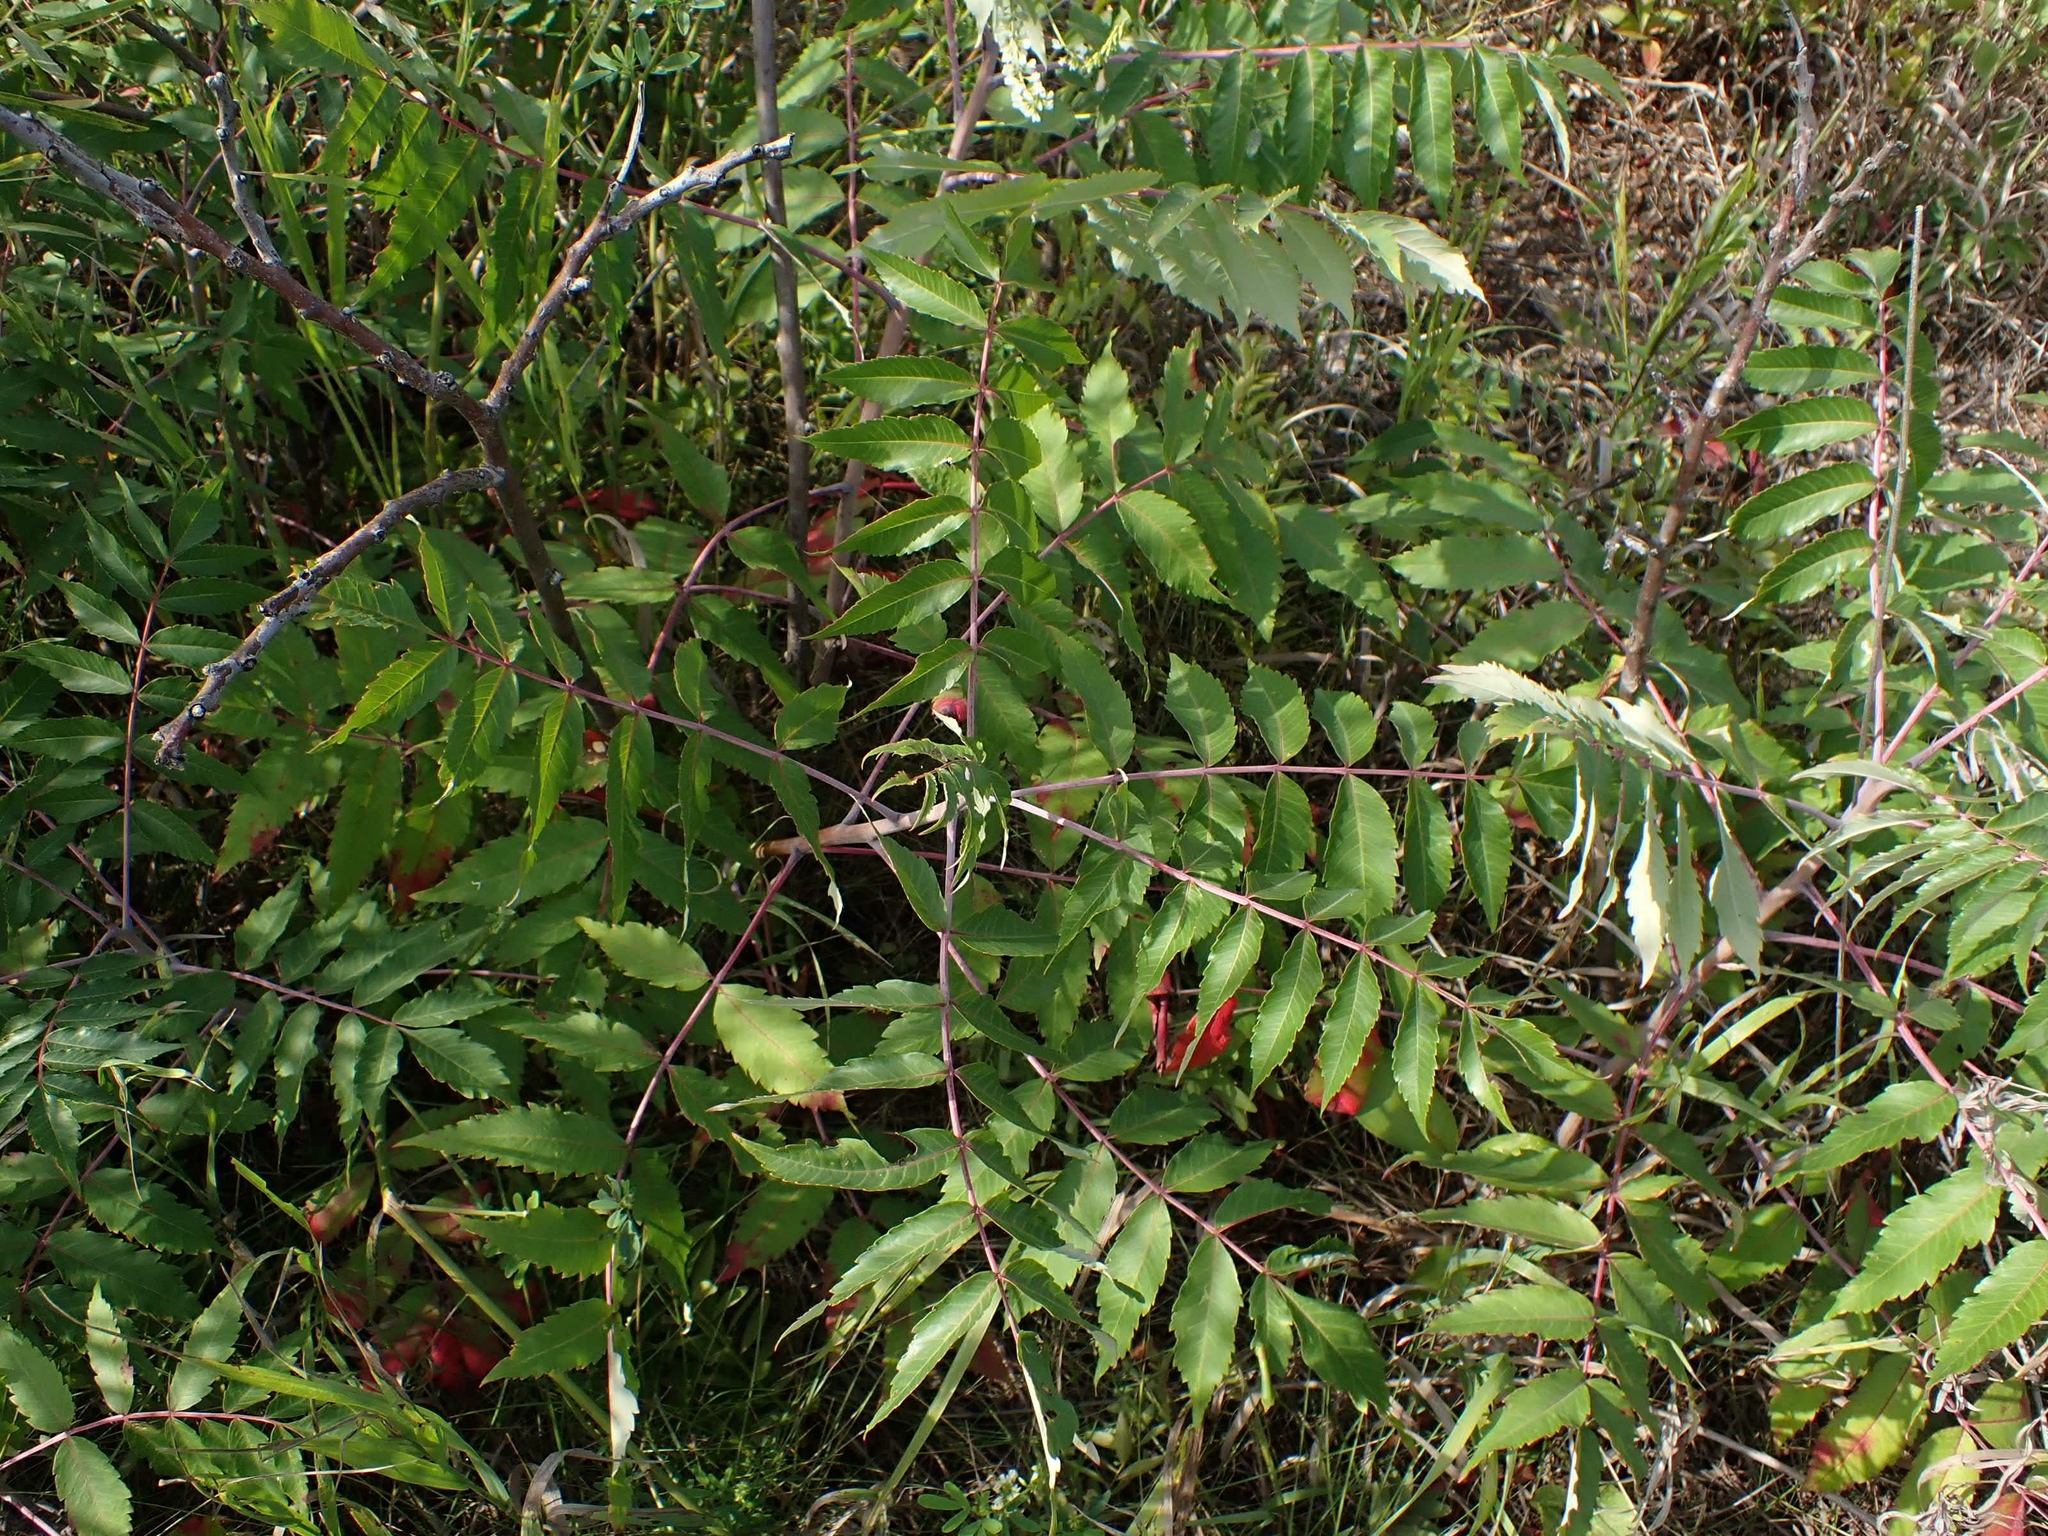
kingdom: Plantae
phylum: Tracheophyta
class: Magnoliopsida
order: Sapindales
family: Anacardiaceae
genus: Rhus
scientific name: Rhus glabra
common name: Scarlet sumac
